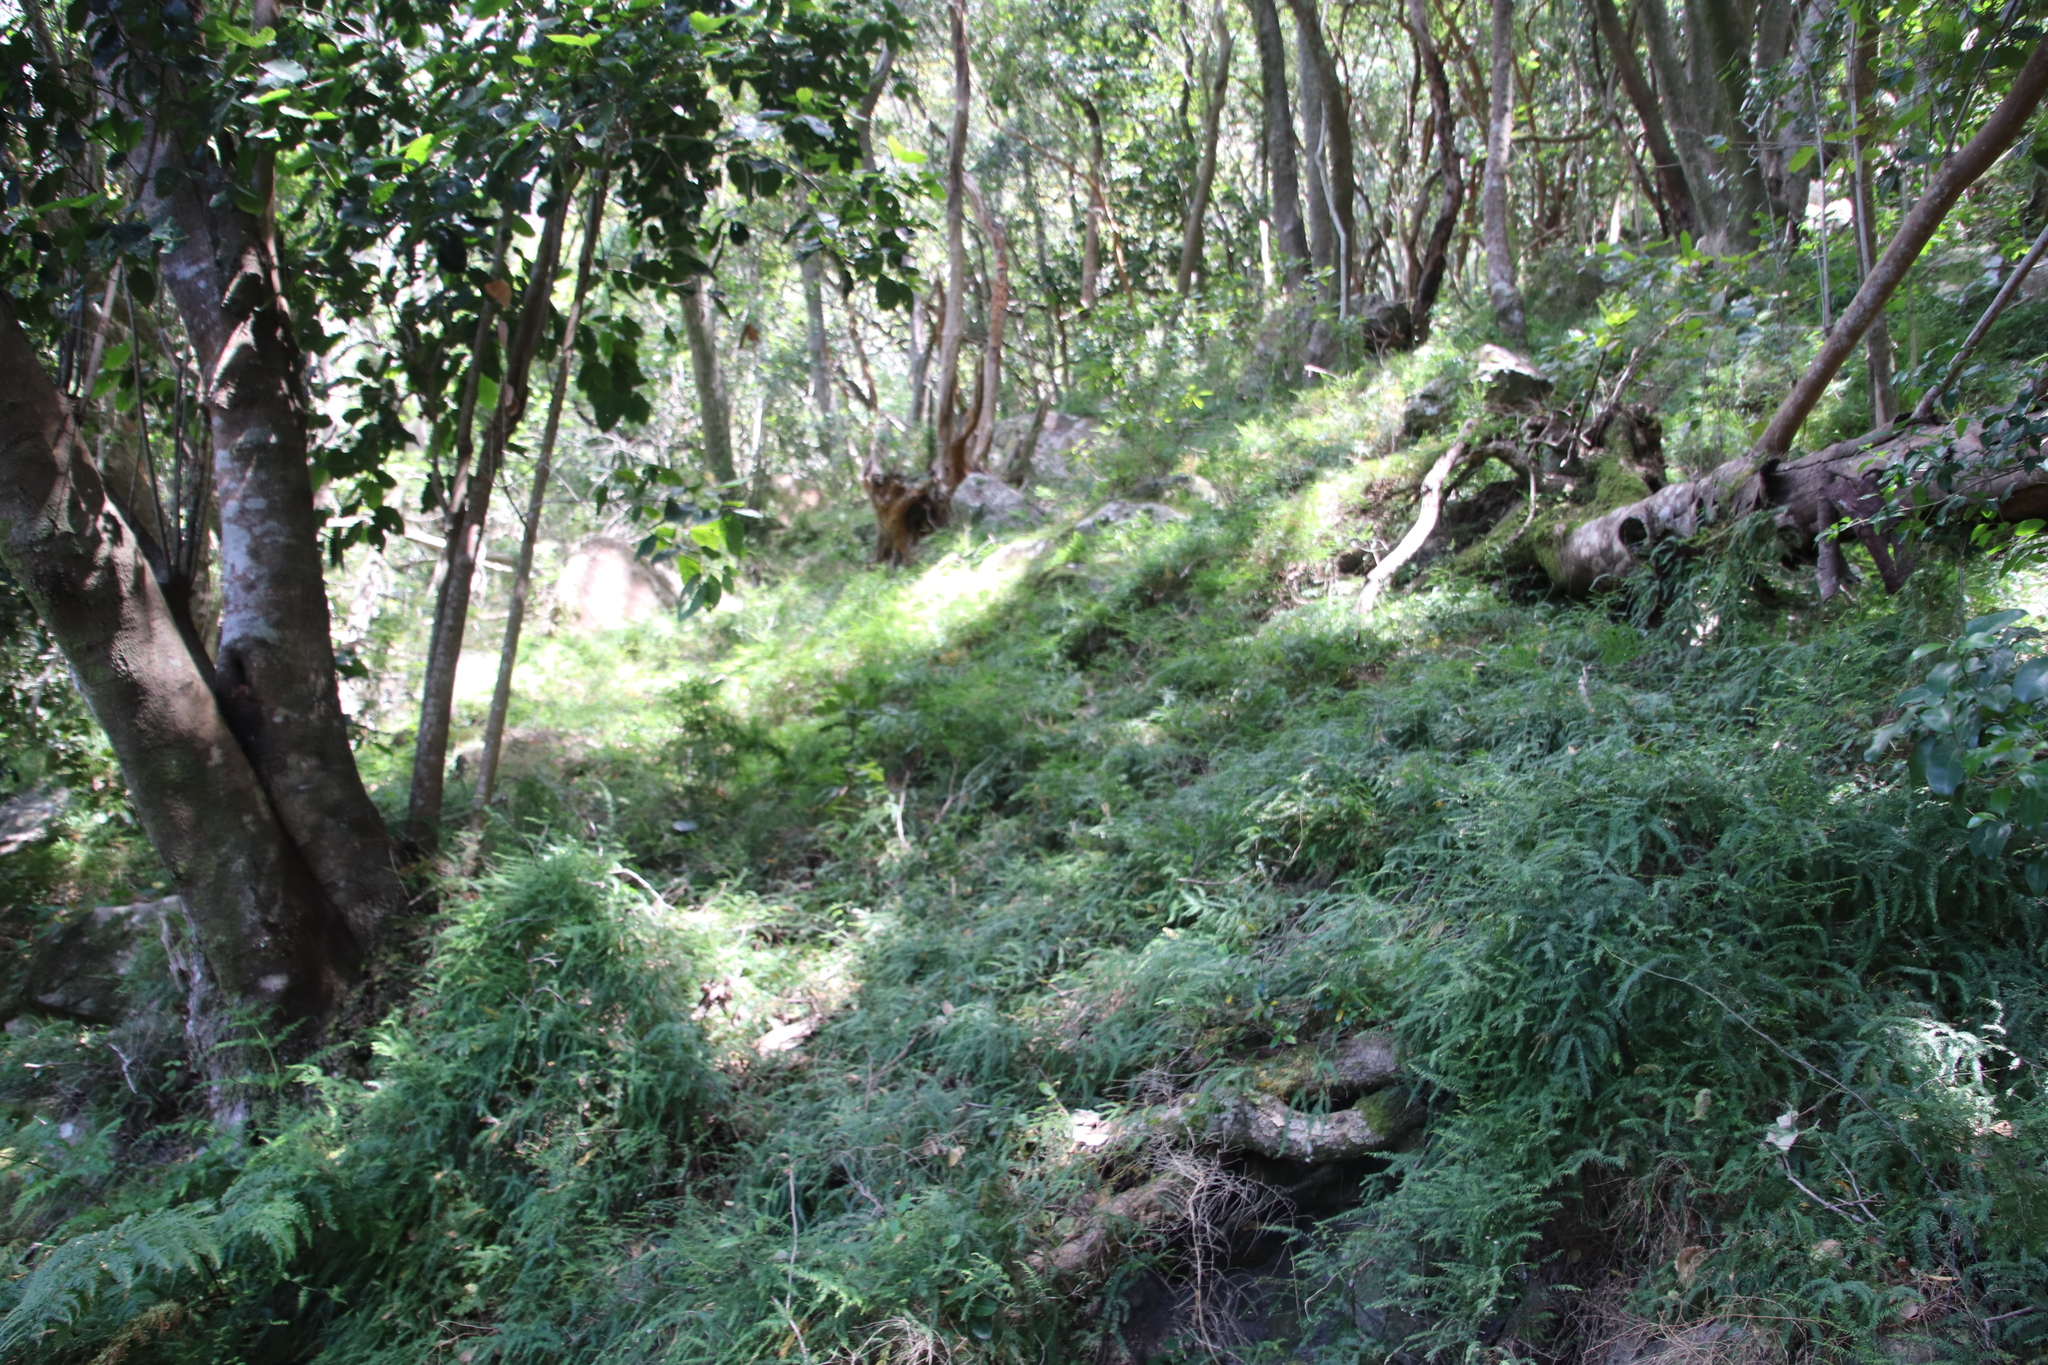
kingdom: Plantae
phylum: Tracheophyta
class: Liliopsida
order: Asparagales
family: Asparagaceae
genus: Asparagus
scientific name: Asparagus scandens
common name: Asparagus-fern
